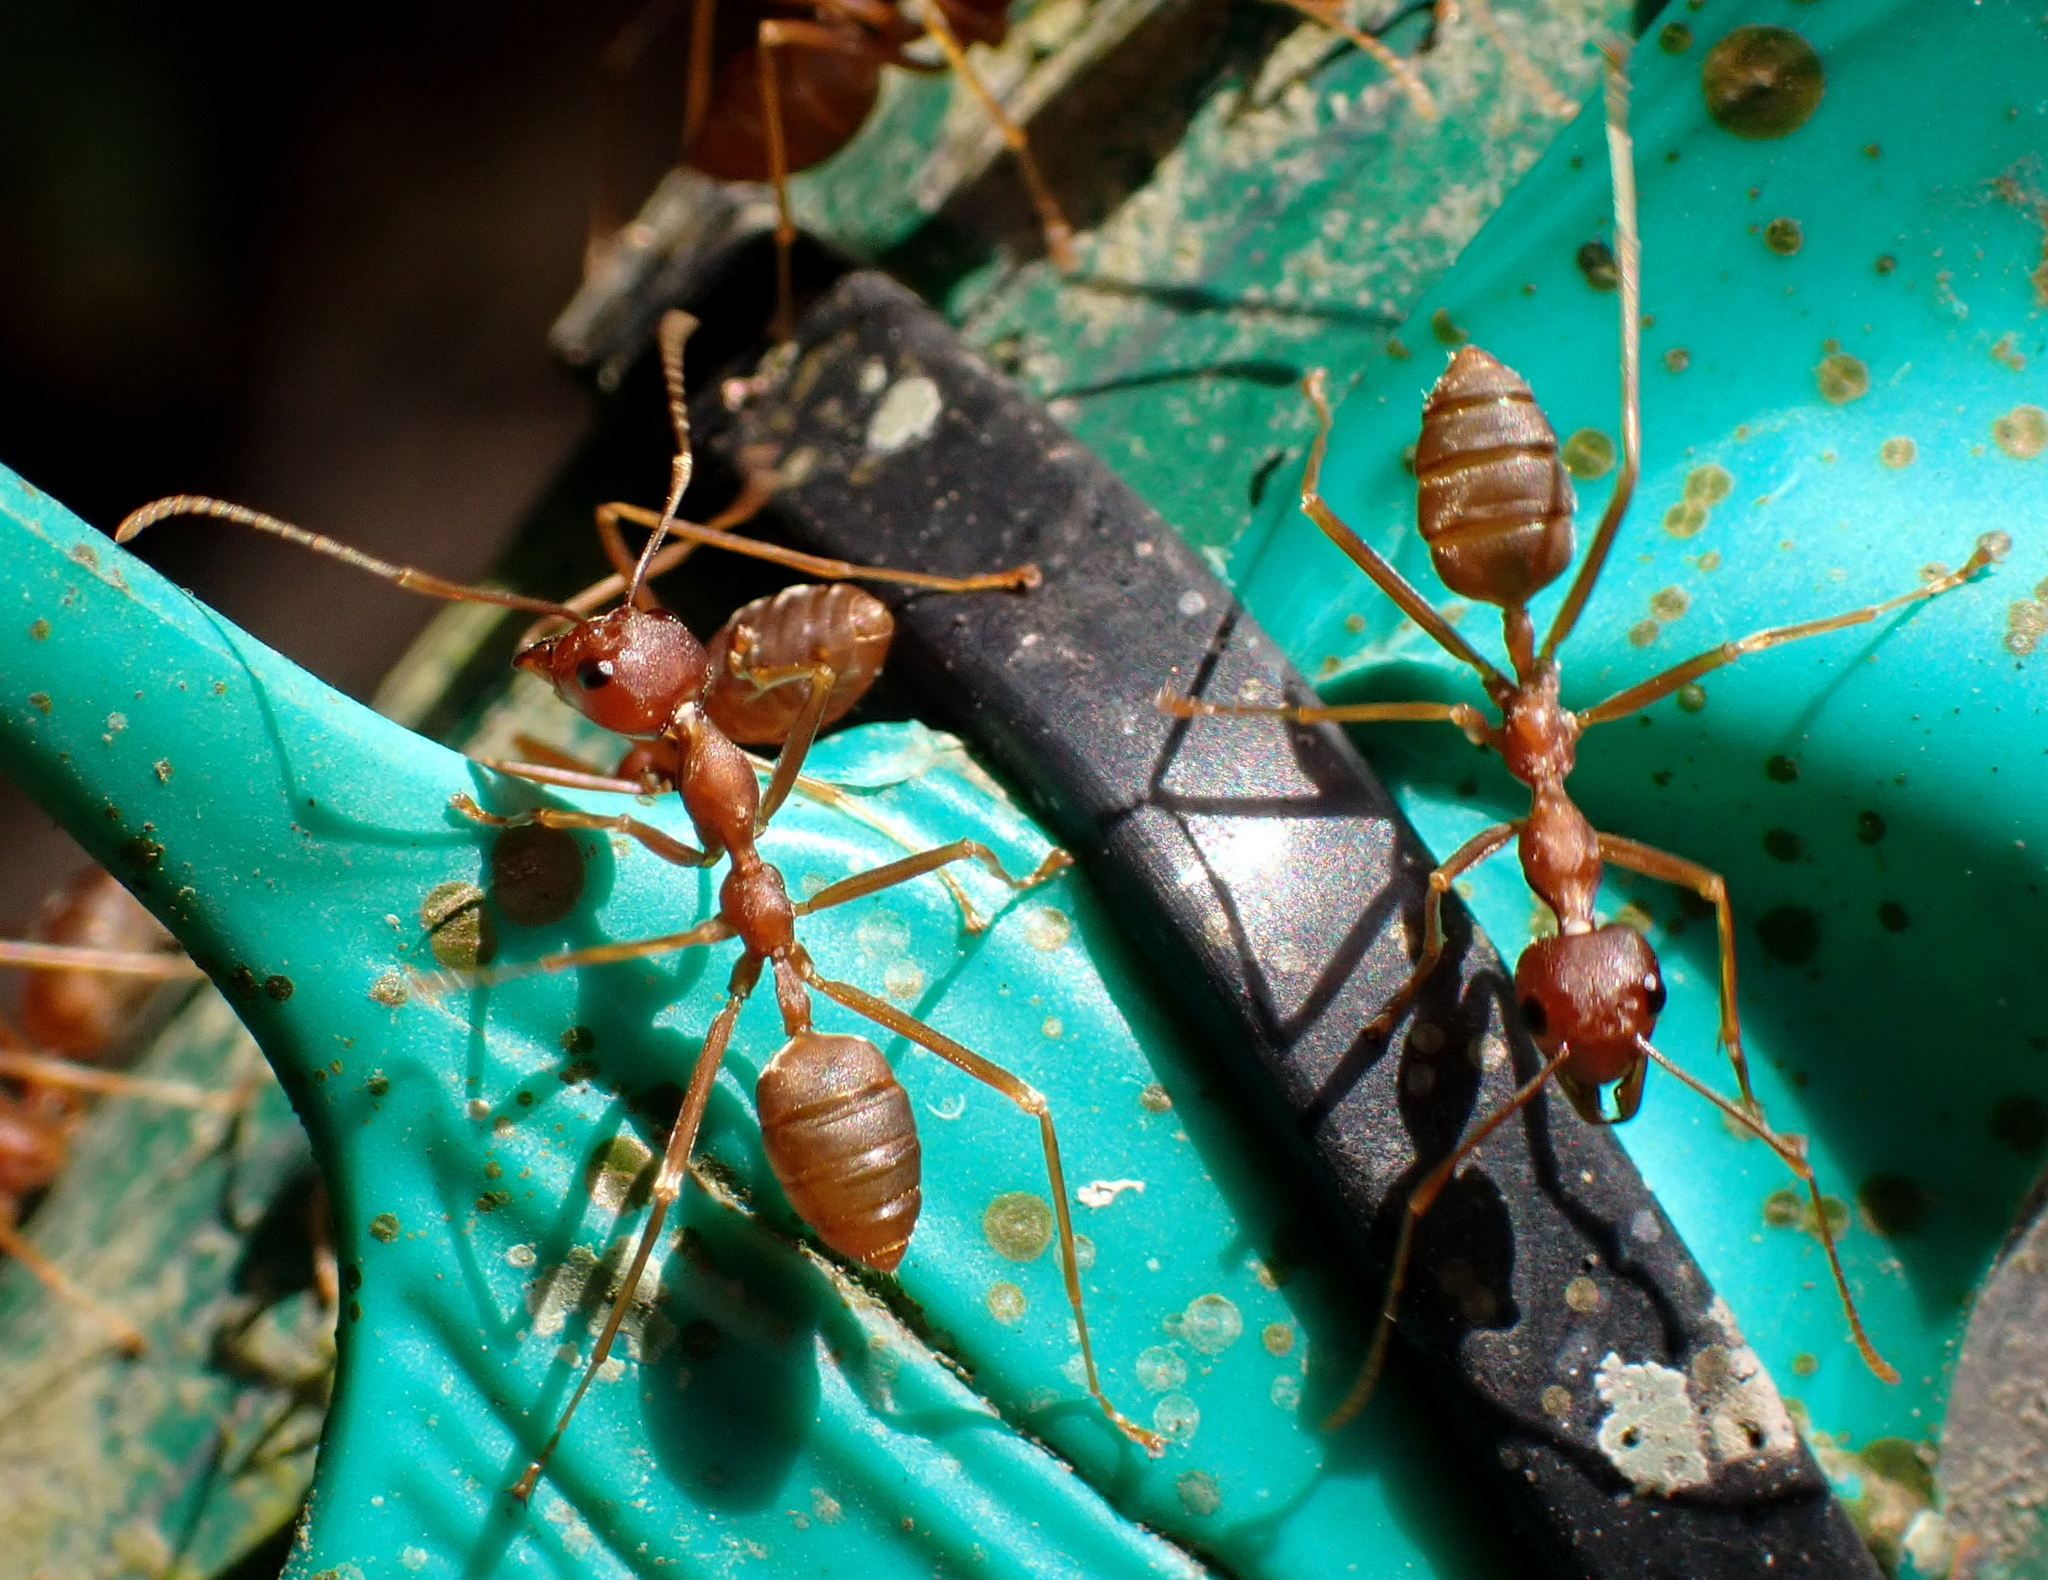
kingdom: Animalia
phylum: Arthropoda
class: Insecta
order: Hymenoptera
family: Formicidae
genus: Oecophylla
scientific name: Oecophylla longinoda
